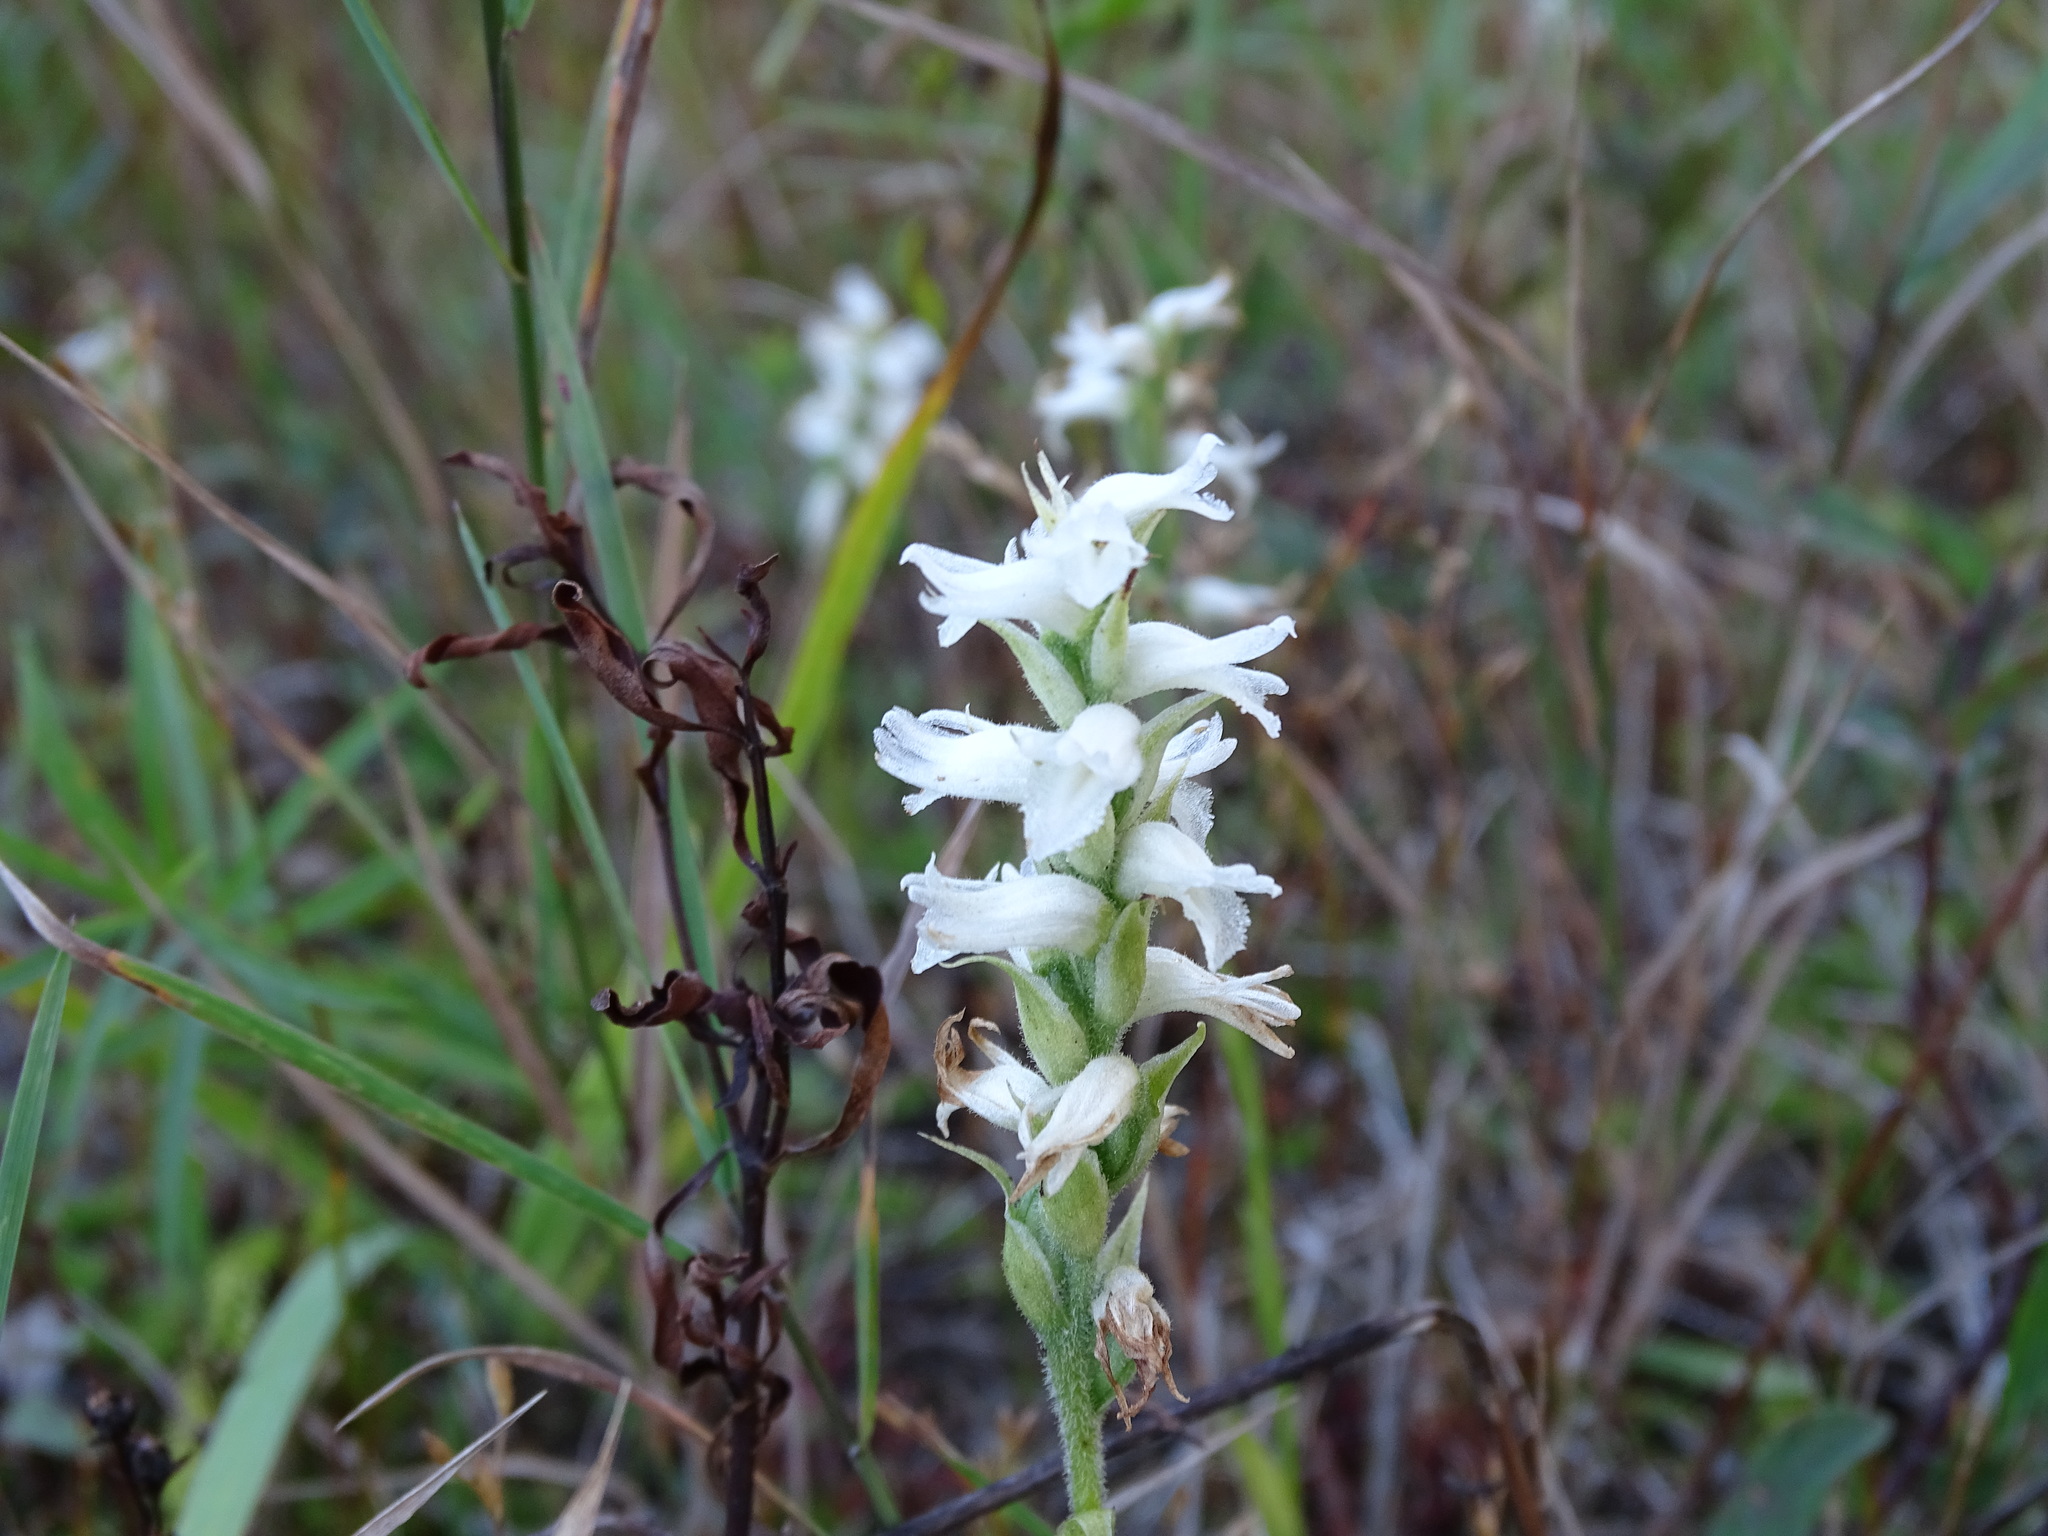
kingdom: Plantae
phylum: Tracheophyta
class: Liliopsida
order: Asparagales
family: Orchidaceae
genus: Spiranthes
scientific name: Spiranthes incurva
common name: Sphinx ladies'-tresses
